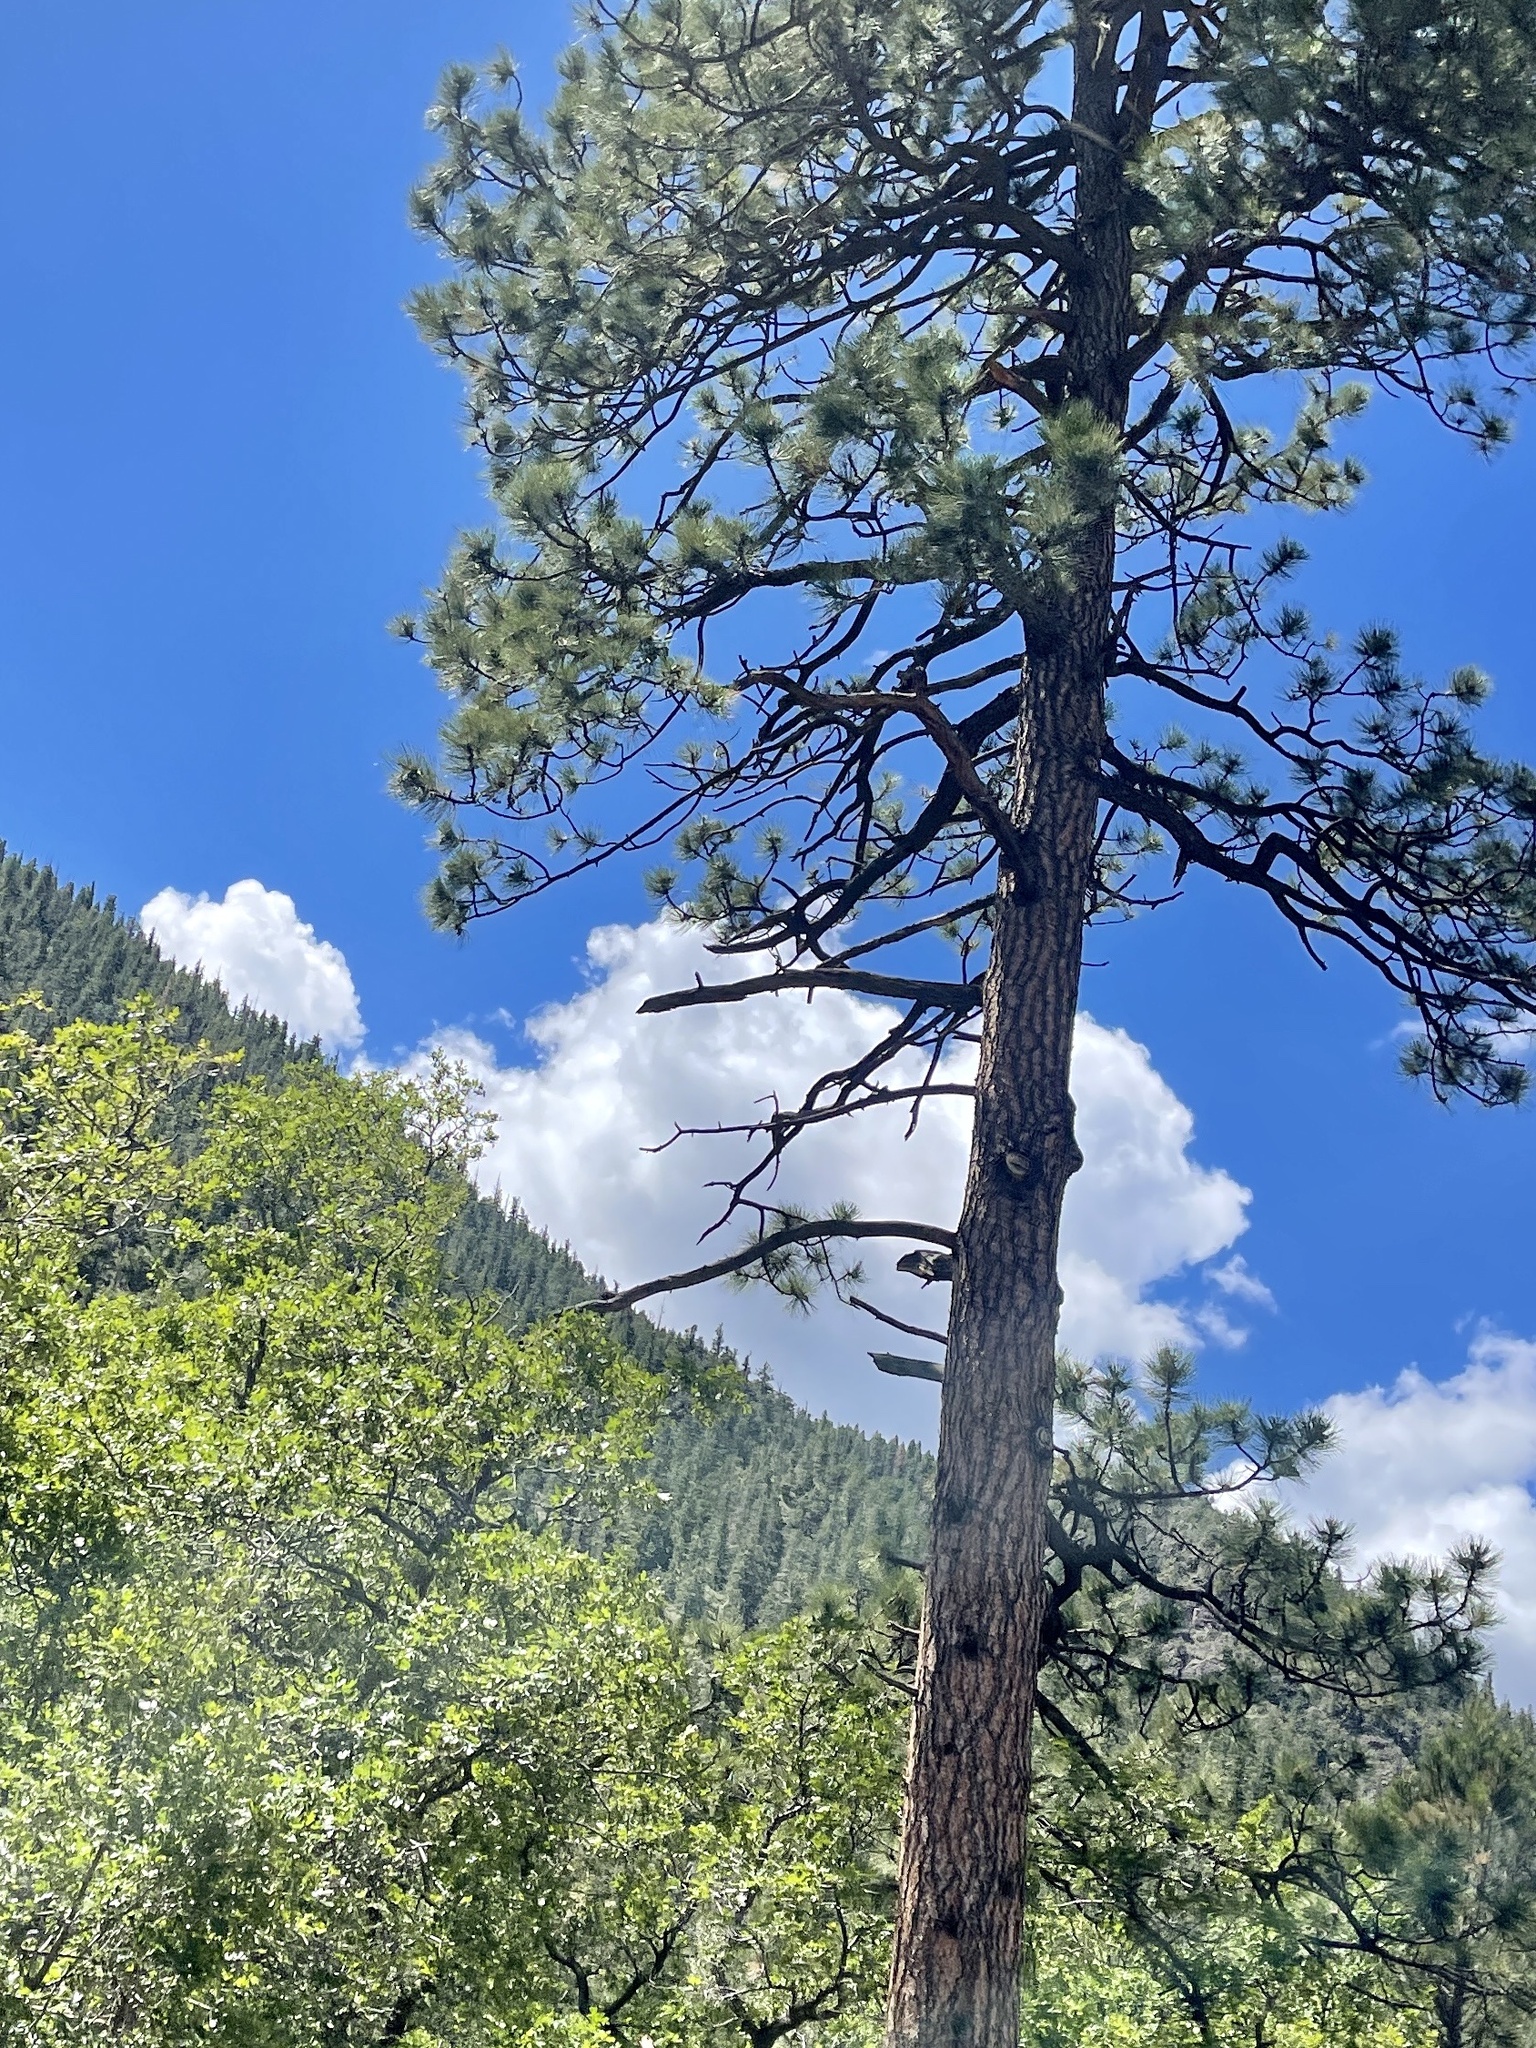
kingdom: Plantae
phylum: Tracheophyta
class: Pinopsida
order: Pinales
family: Pinaceae
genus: Pinus
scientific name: Pinus ponderosa
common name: Western yellow-pine
